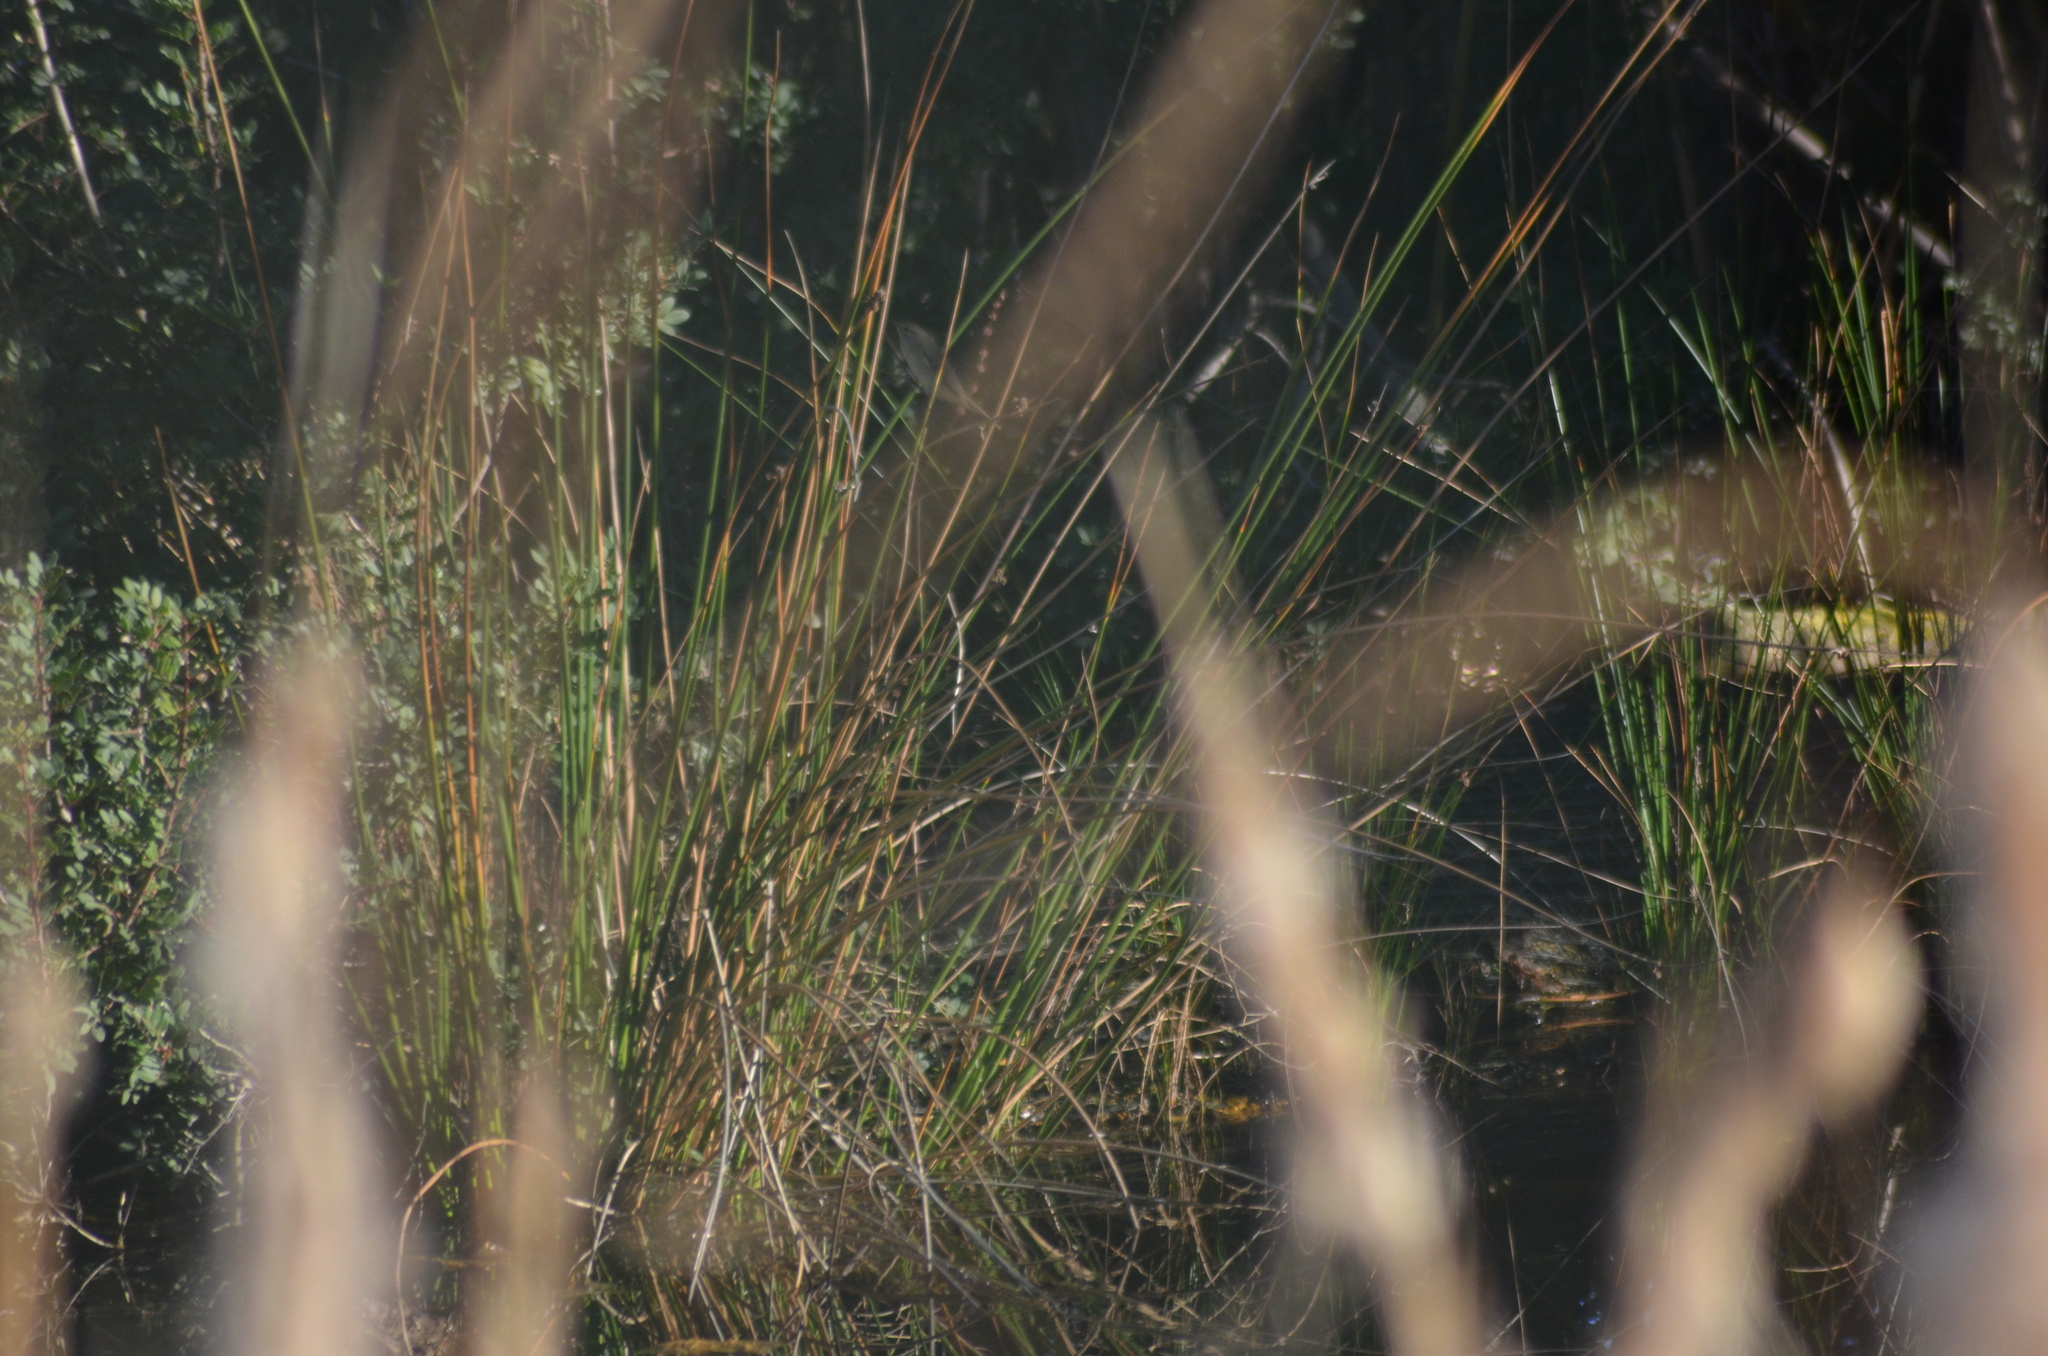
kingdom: Animalia
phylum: Chordata
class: Aves
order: Passeriformes
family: Phylloscopidae
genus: Phylloscopus
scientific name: Phylloscopus collybita
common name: Common chiffchaff
